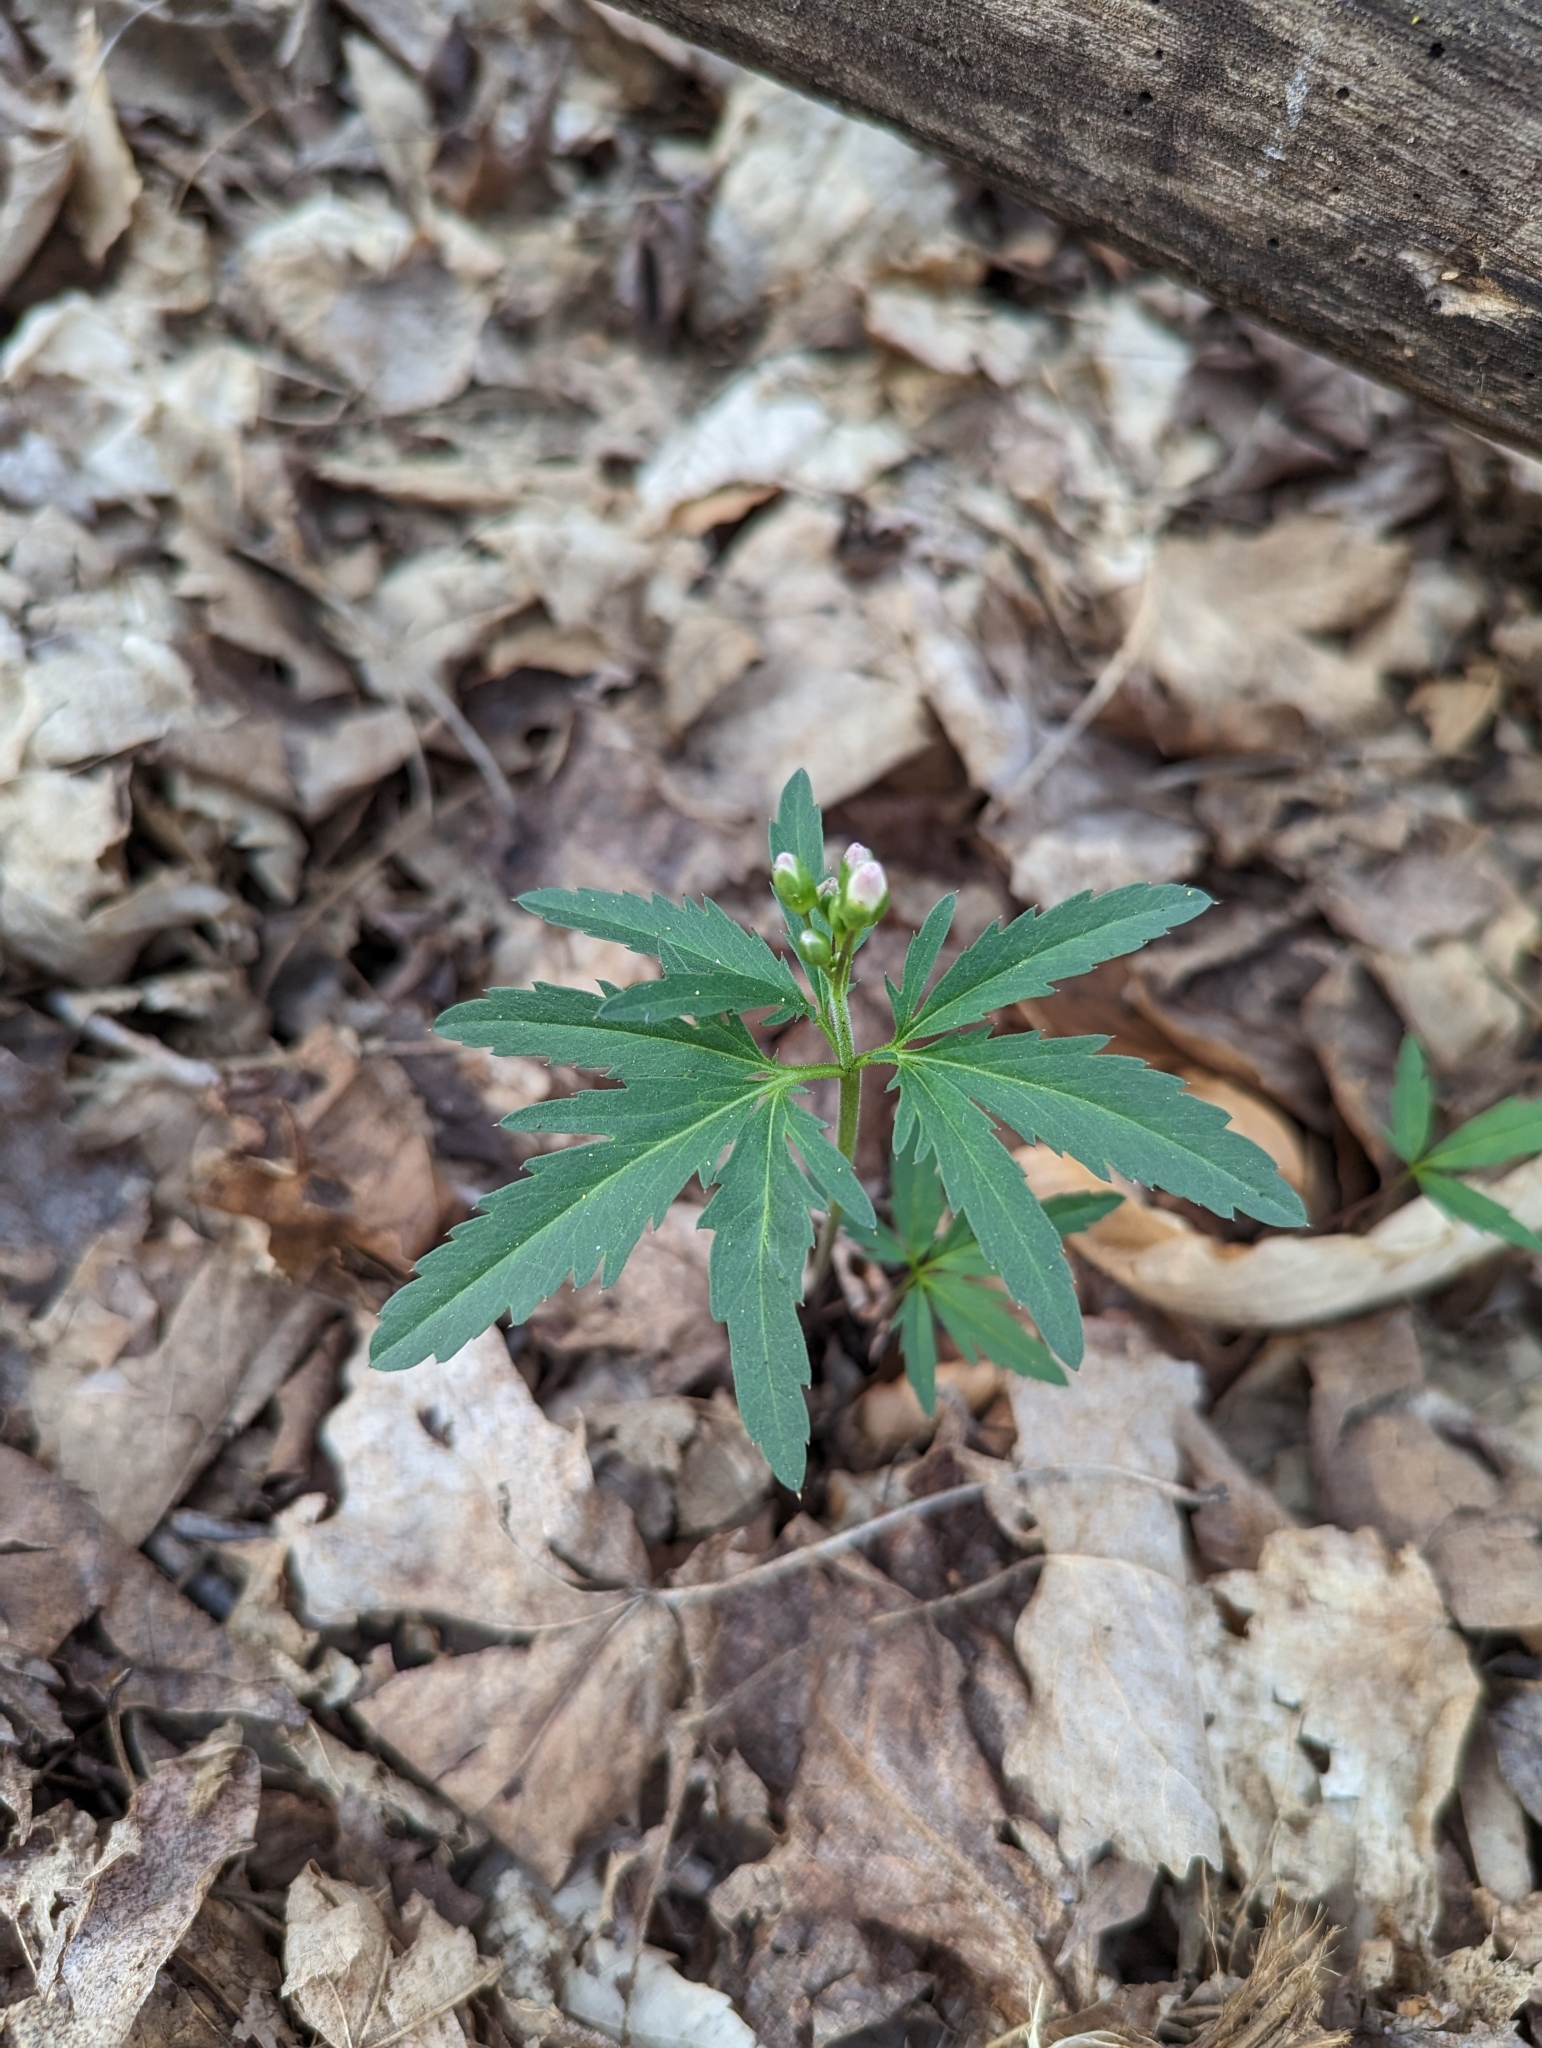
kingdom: Plantae
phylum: Tracheophyta
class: Magnoliopsida
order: Brassicales
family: Brassicaceae
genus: Cardamine
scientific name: Cardamine concatenata
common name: Cut-leaf toothcup
